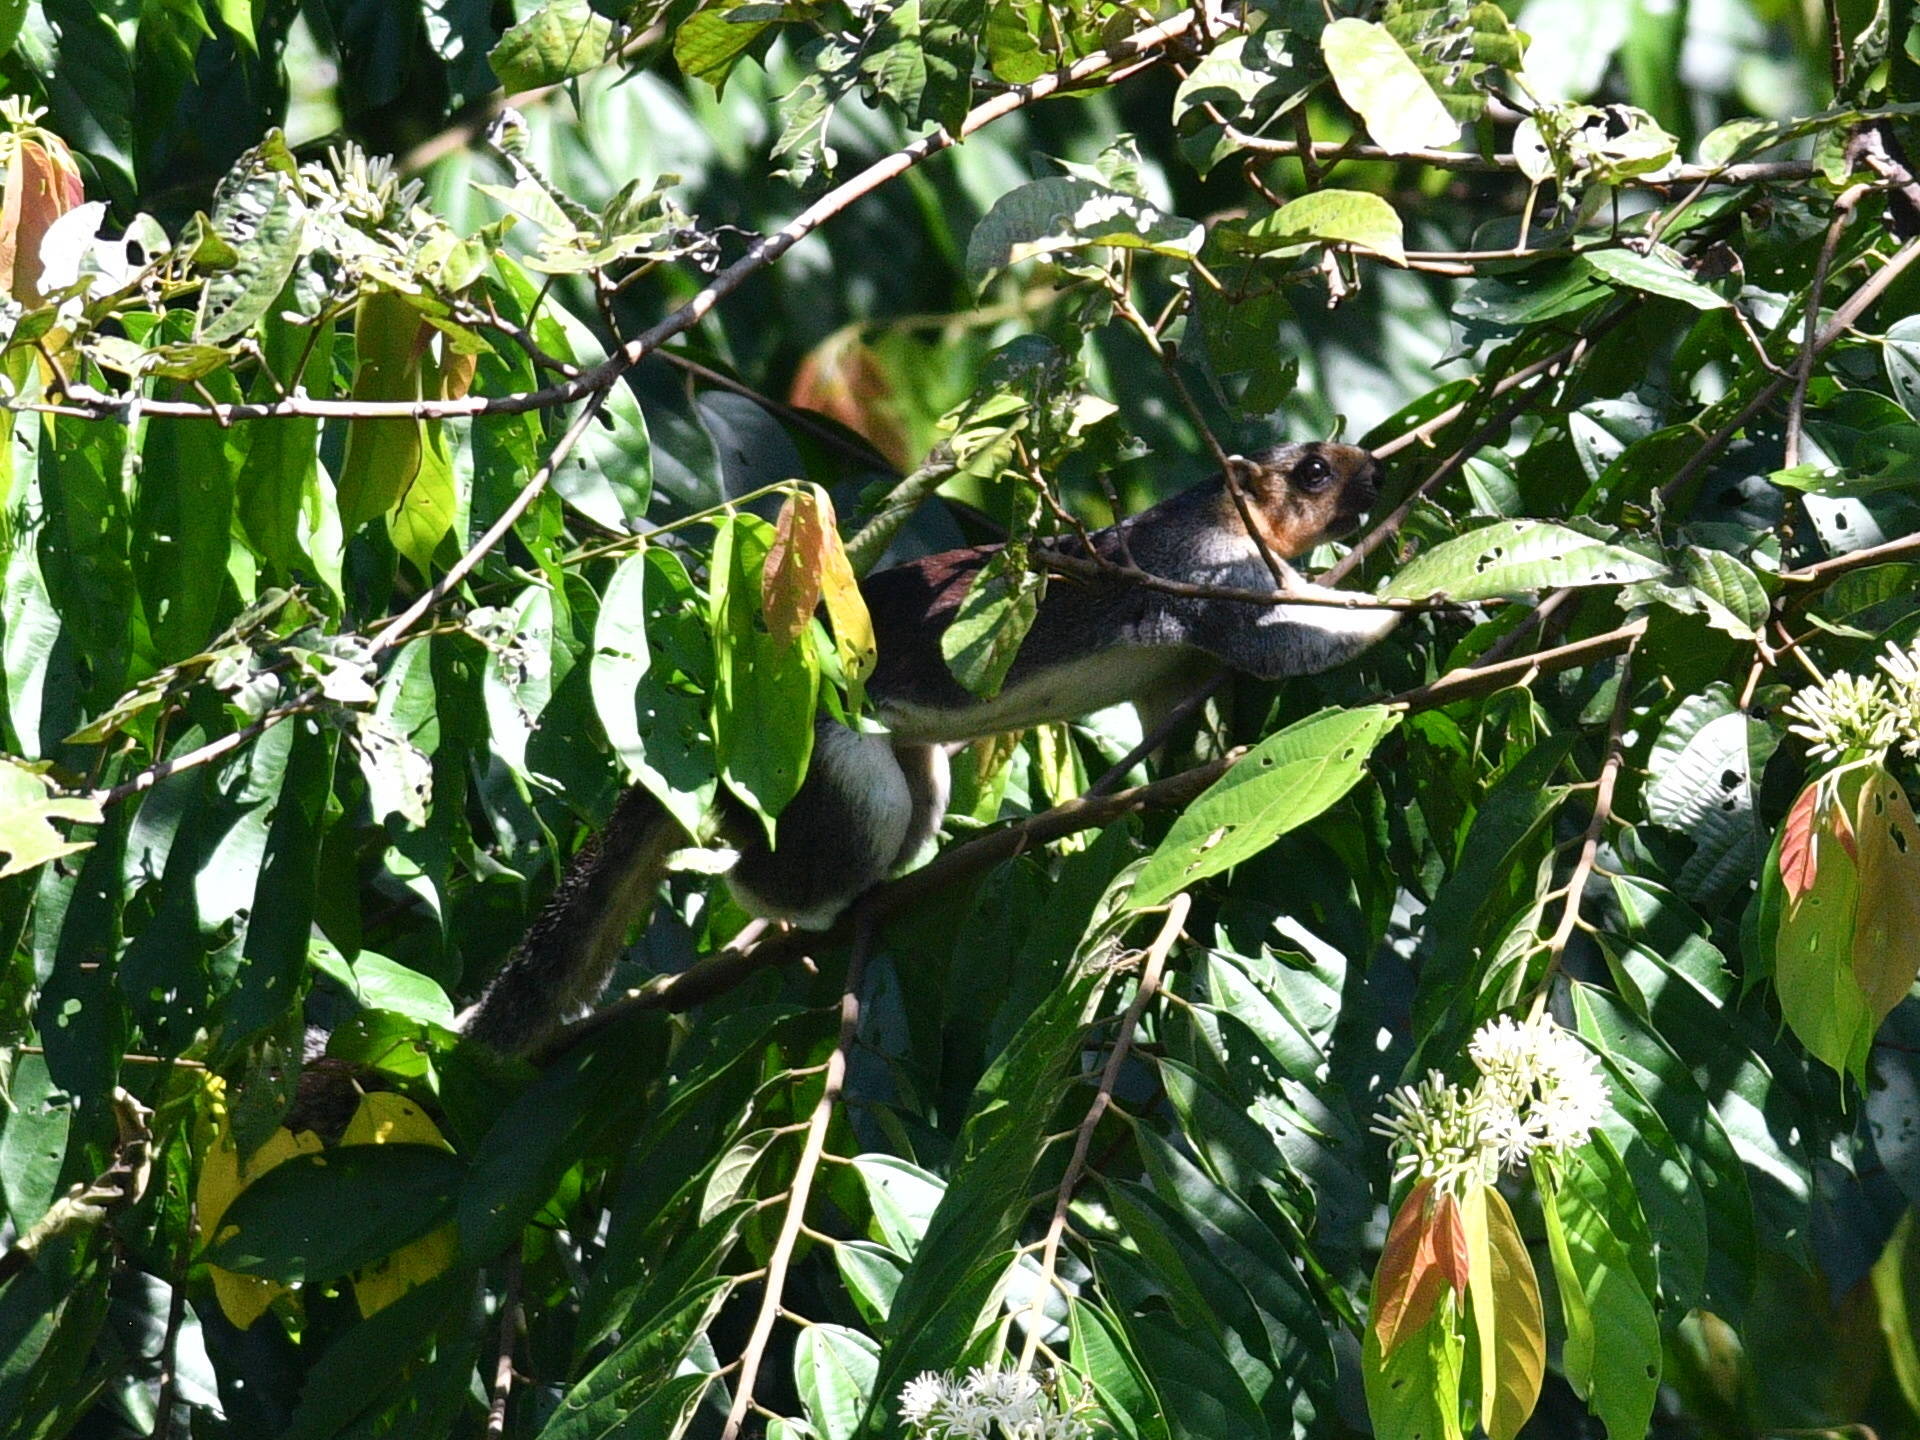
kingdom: Animalia
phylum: Chordata
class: Mammalia
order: Rodentia
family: Sciuridae
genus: Ratufa
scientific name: Ratufa affinis
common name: Pale giant squirrel
